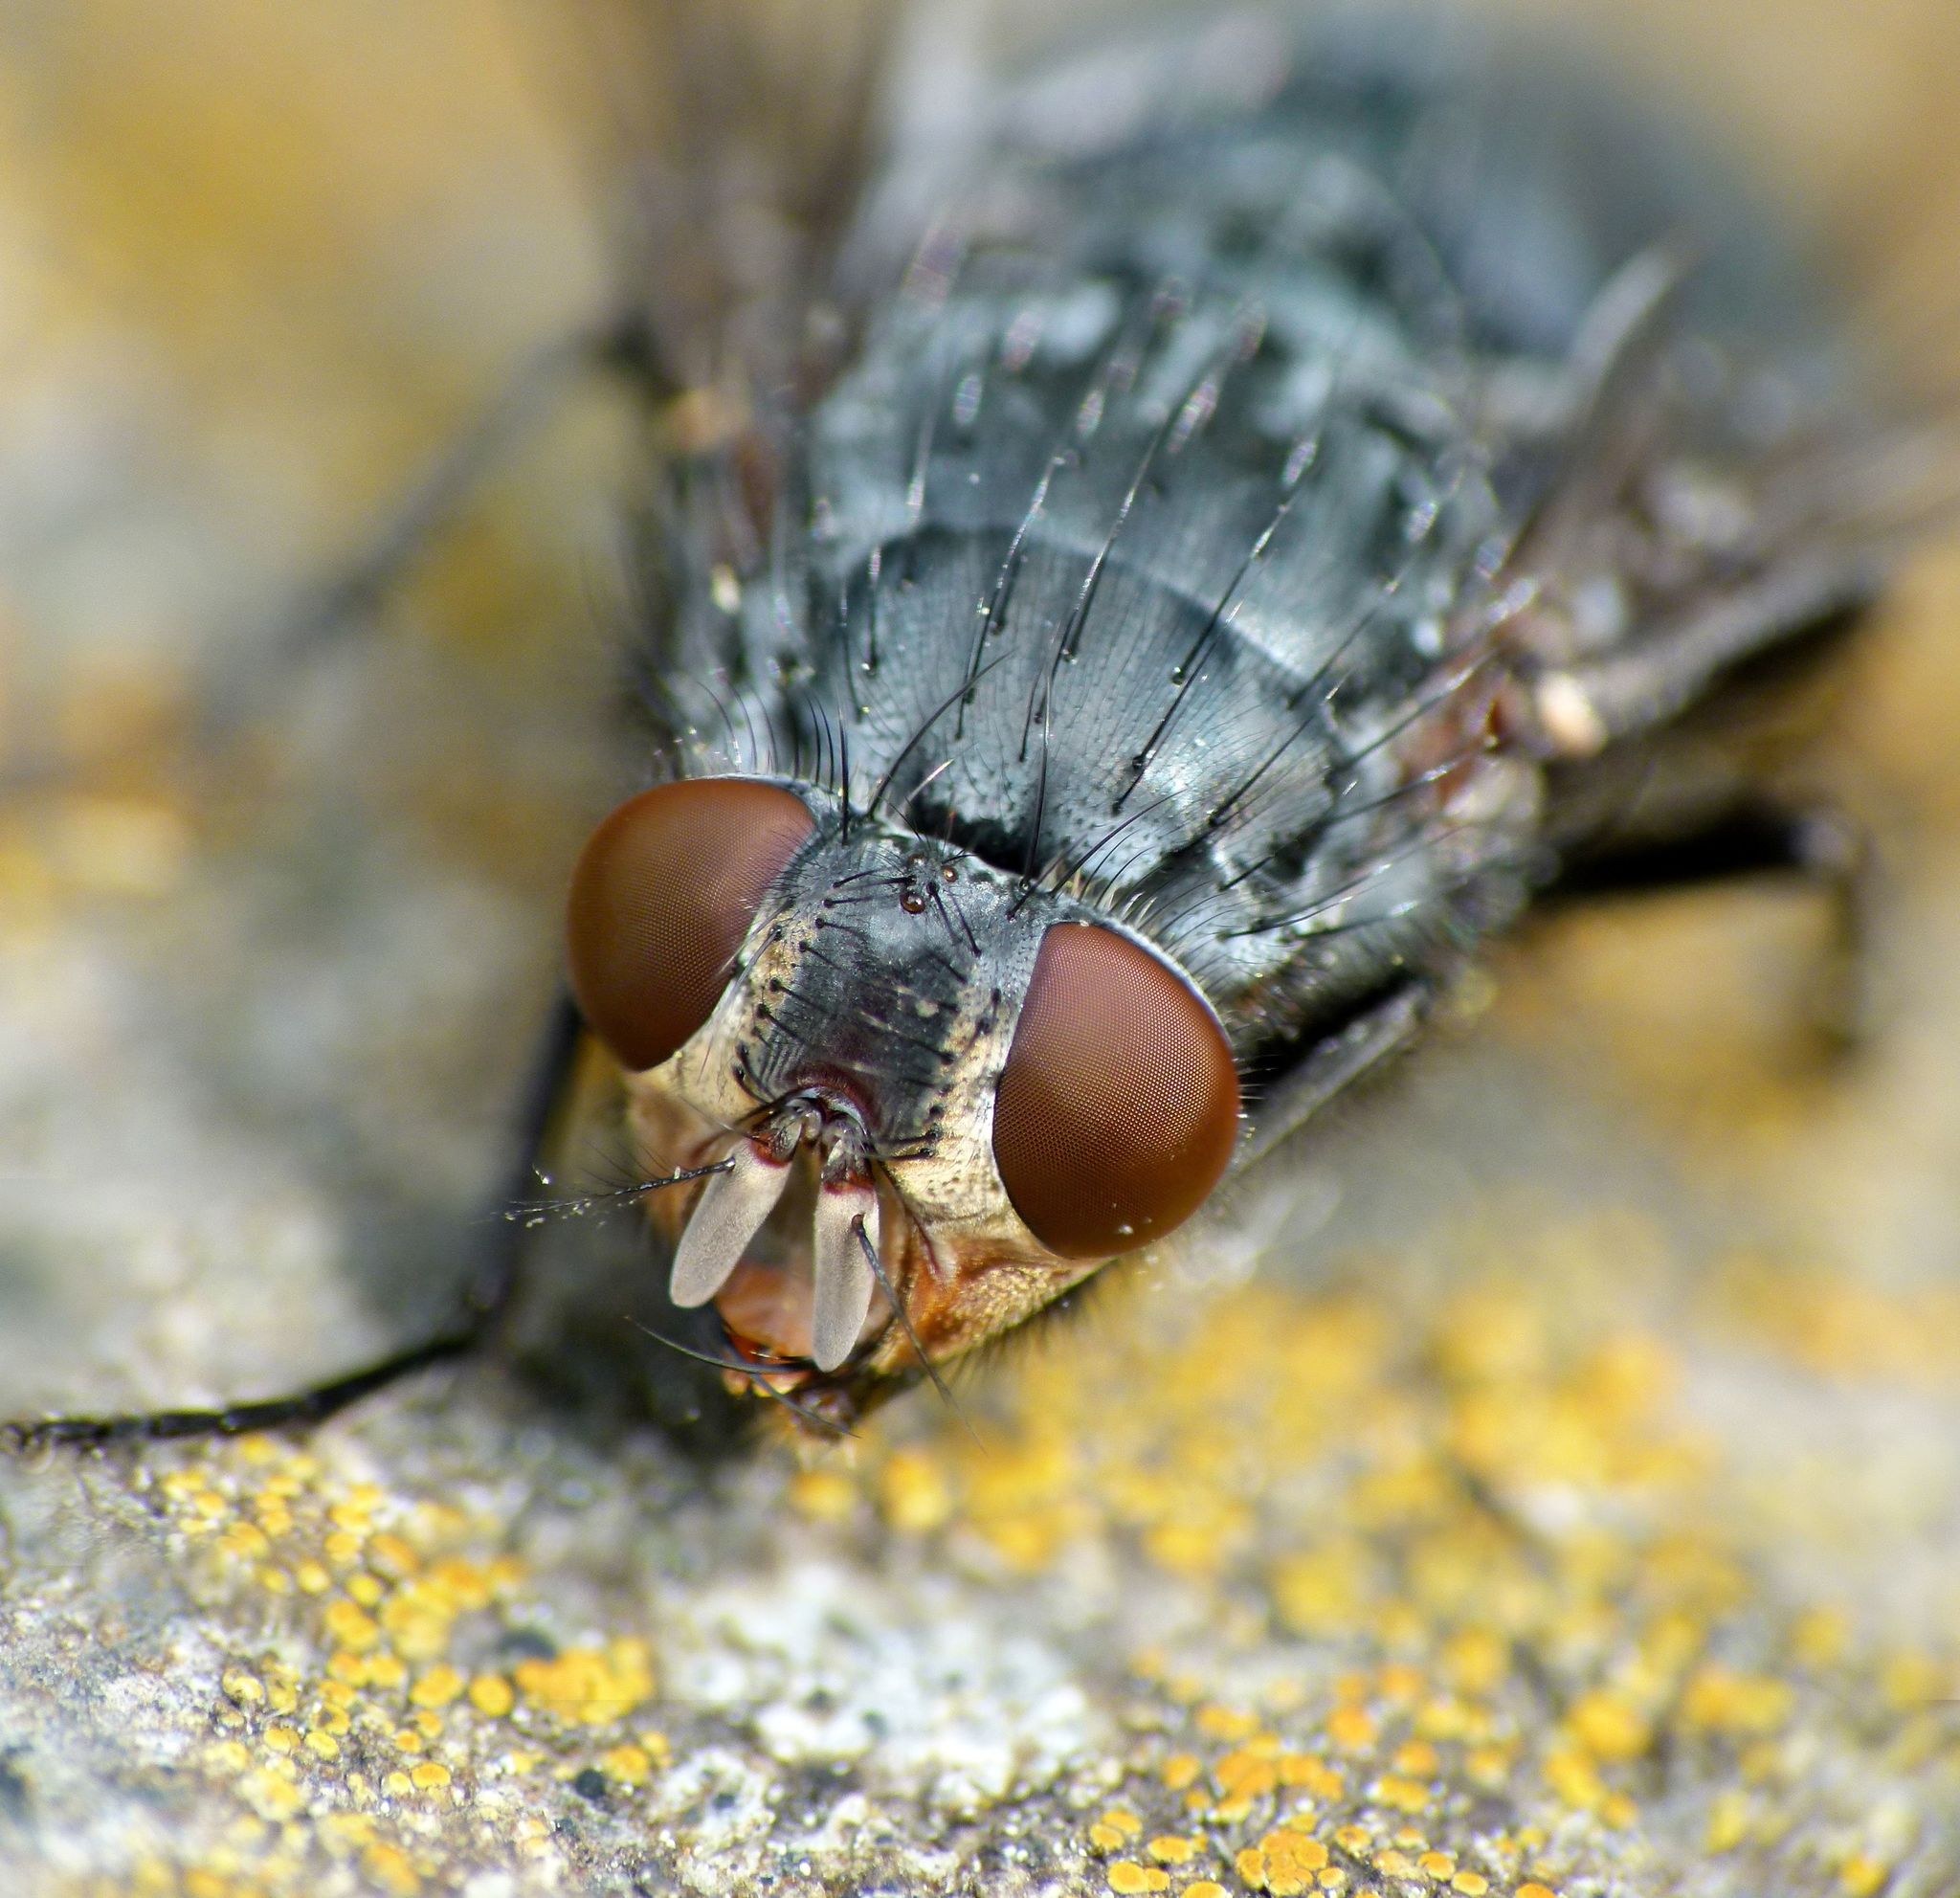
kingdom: Animalia
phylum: Arthropoda
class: Insecta
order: Diptera
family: Calliphoridae
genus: Calliphora
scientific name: Calliphora vicina
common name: Common blow flie
